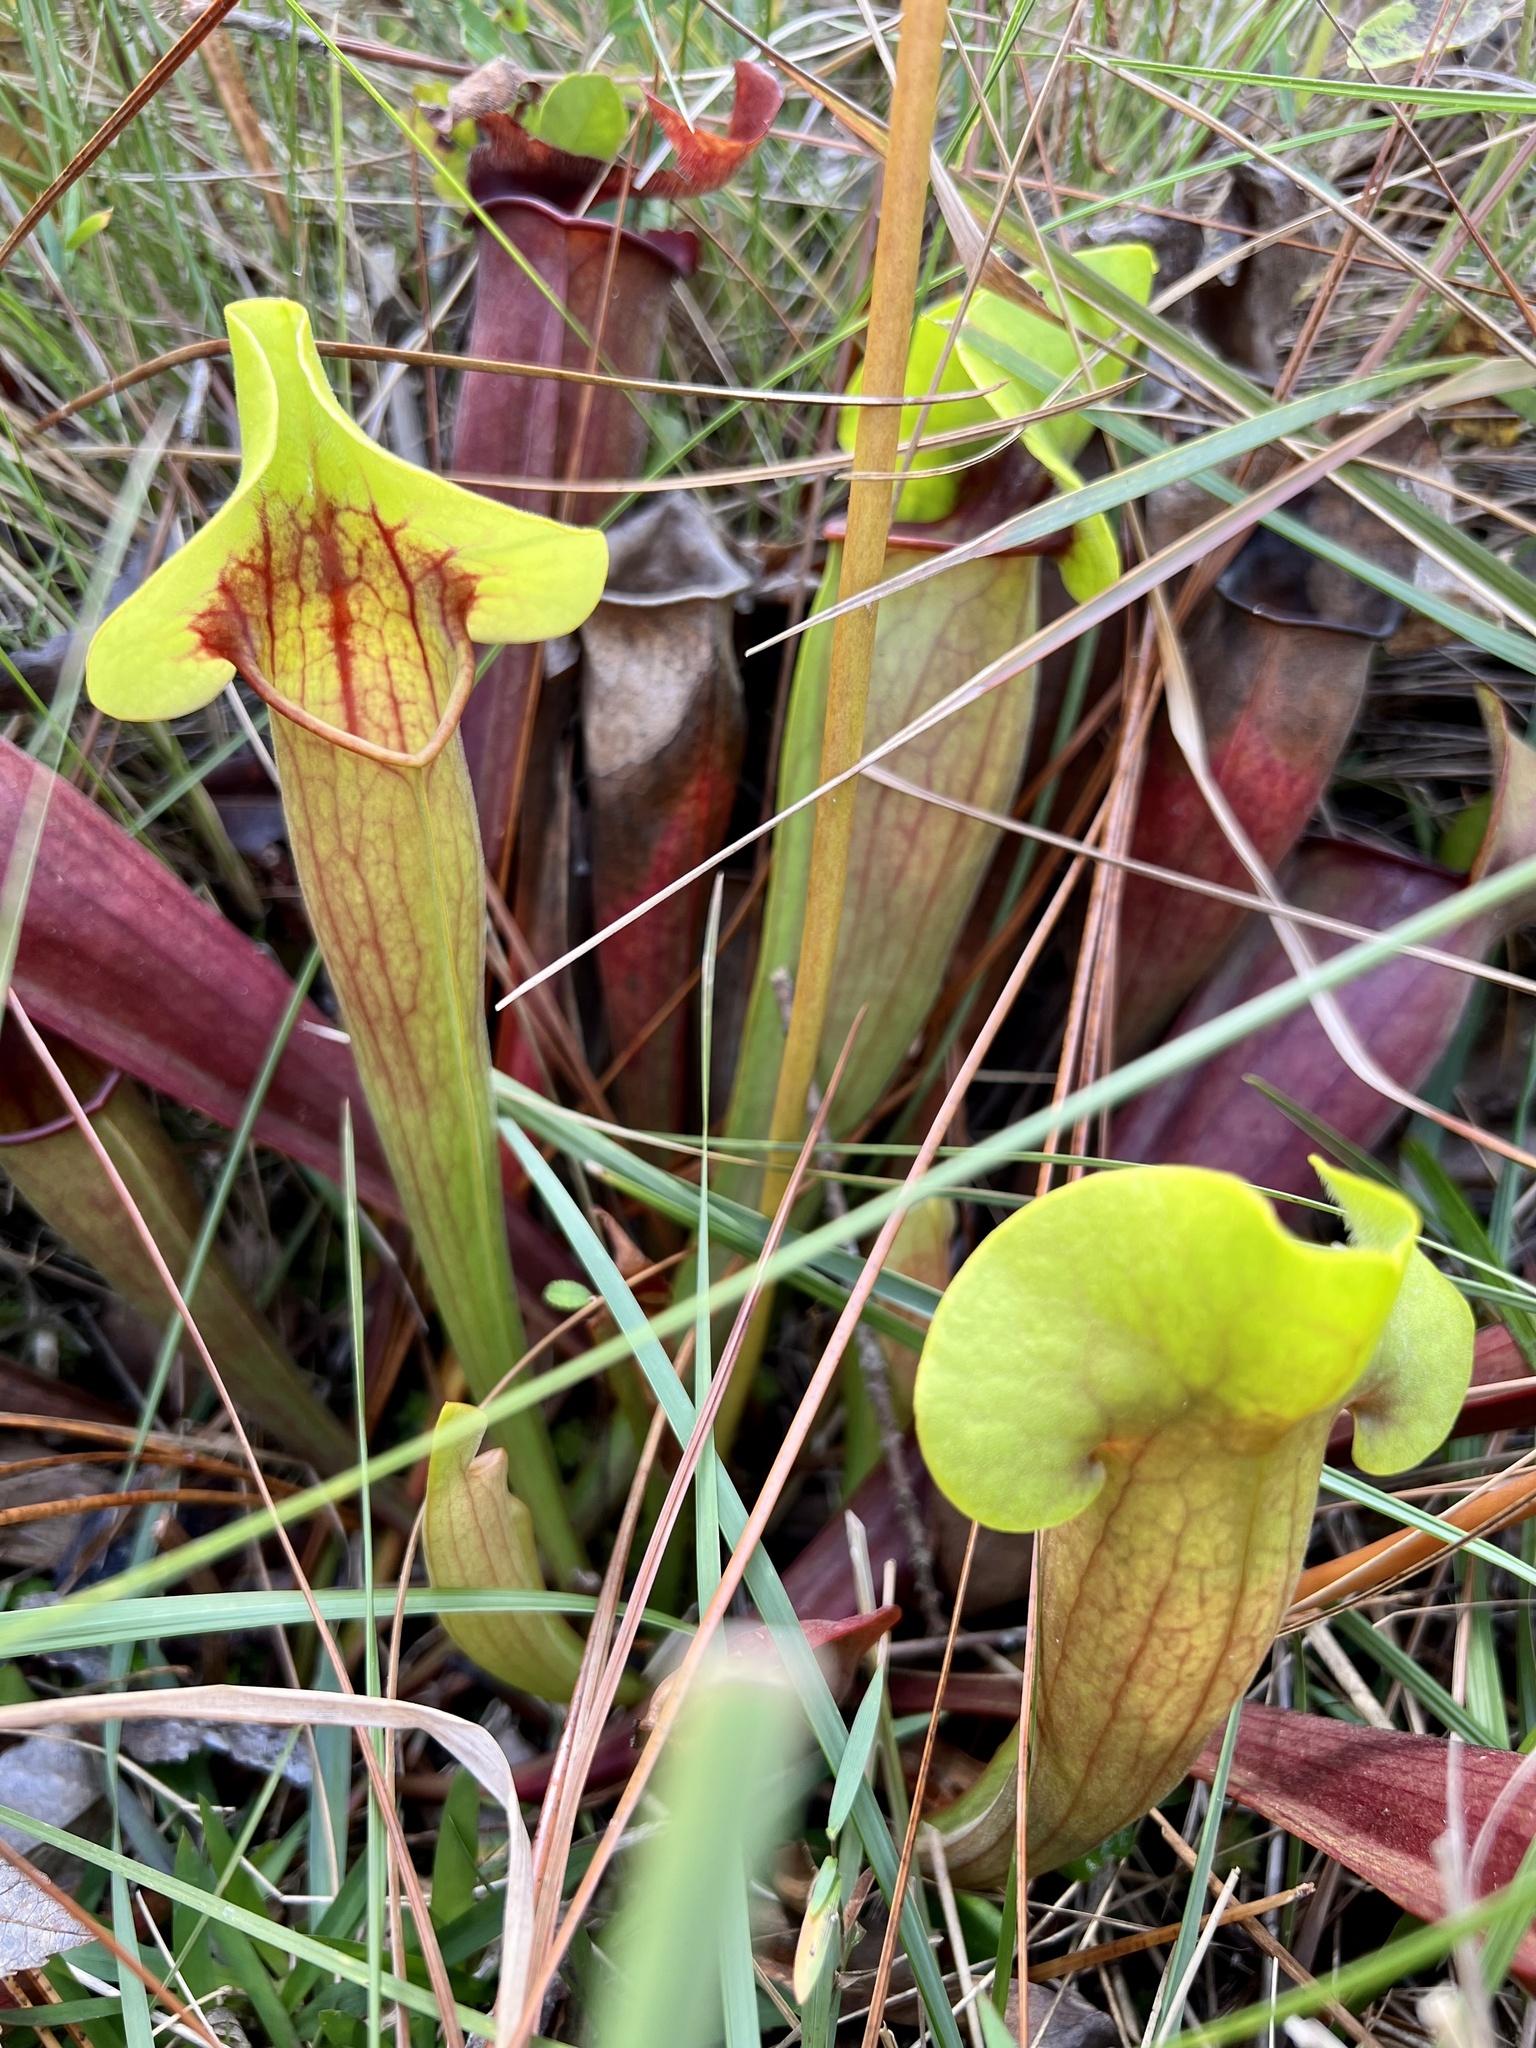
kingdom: Plantae
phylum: Tracheophyta
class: Magnoliopsida
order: Ericales
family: Sarraceniaceae
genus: Sarracenia
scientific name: Sarracenia catesbaei
